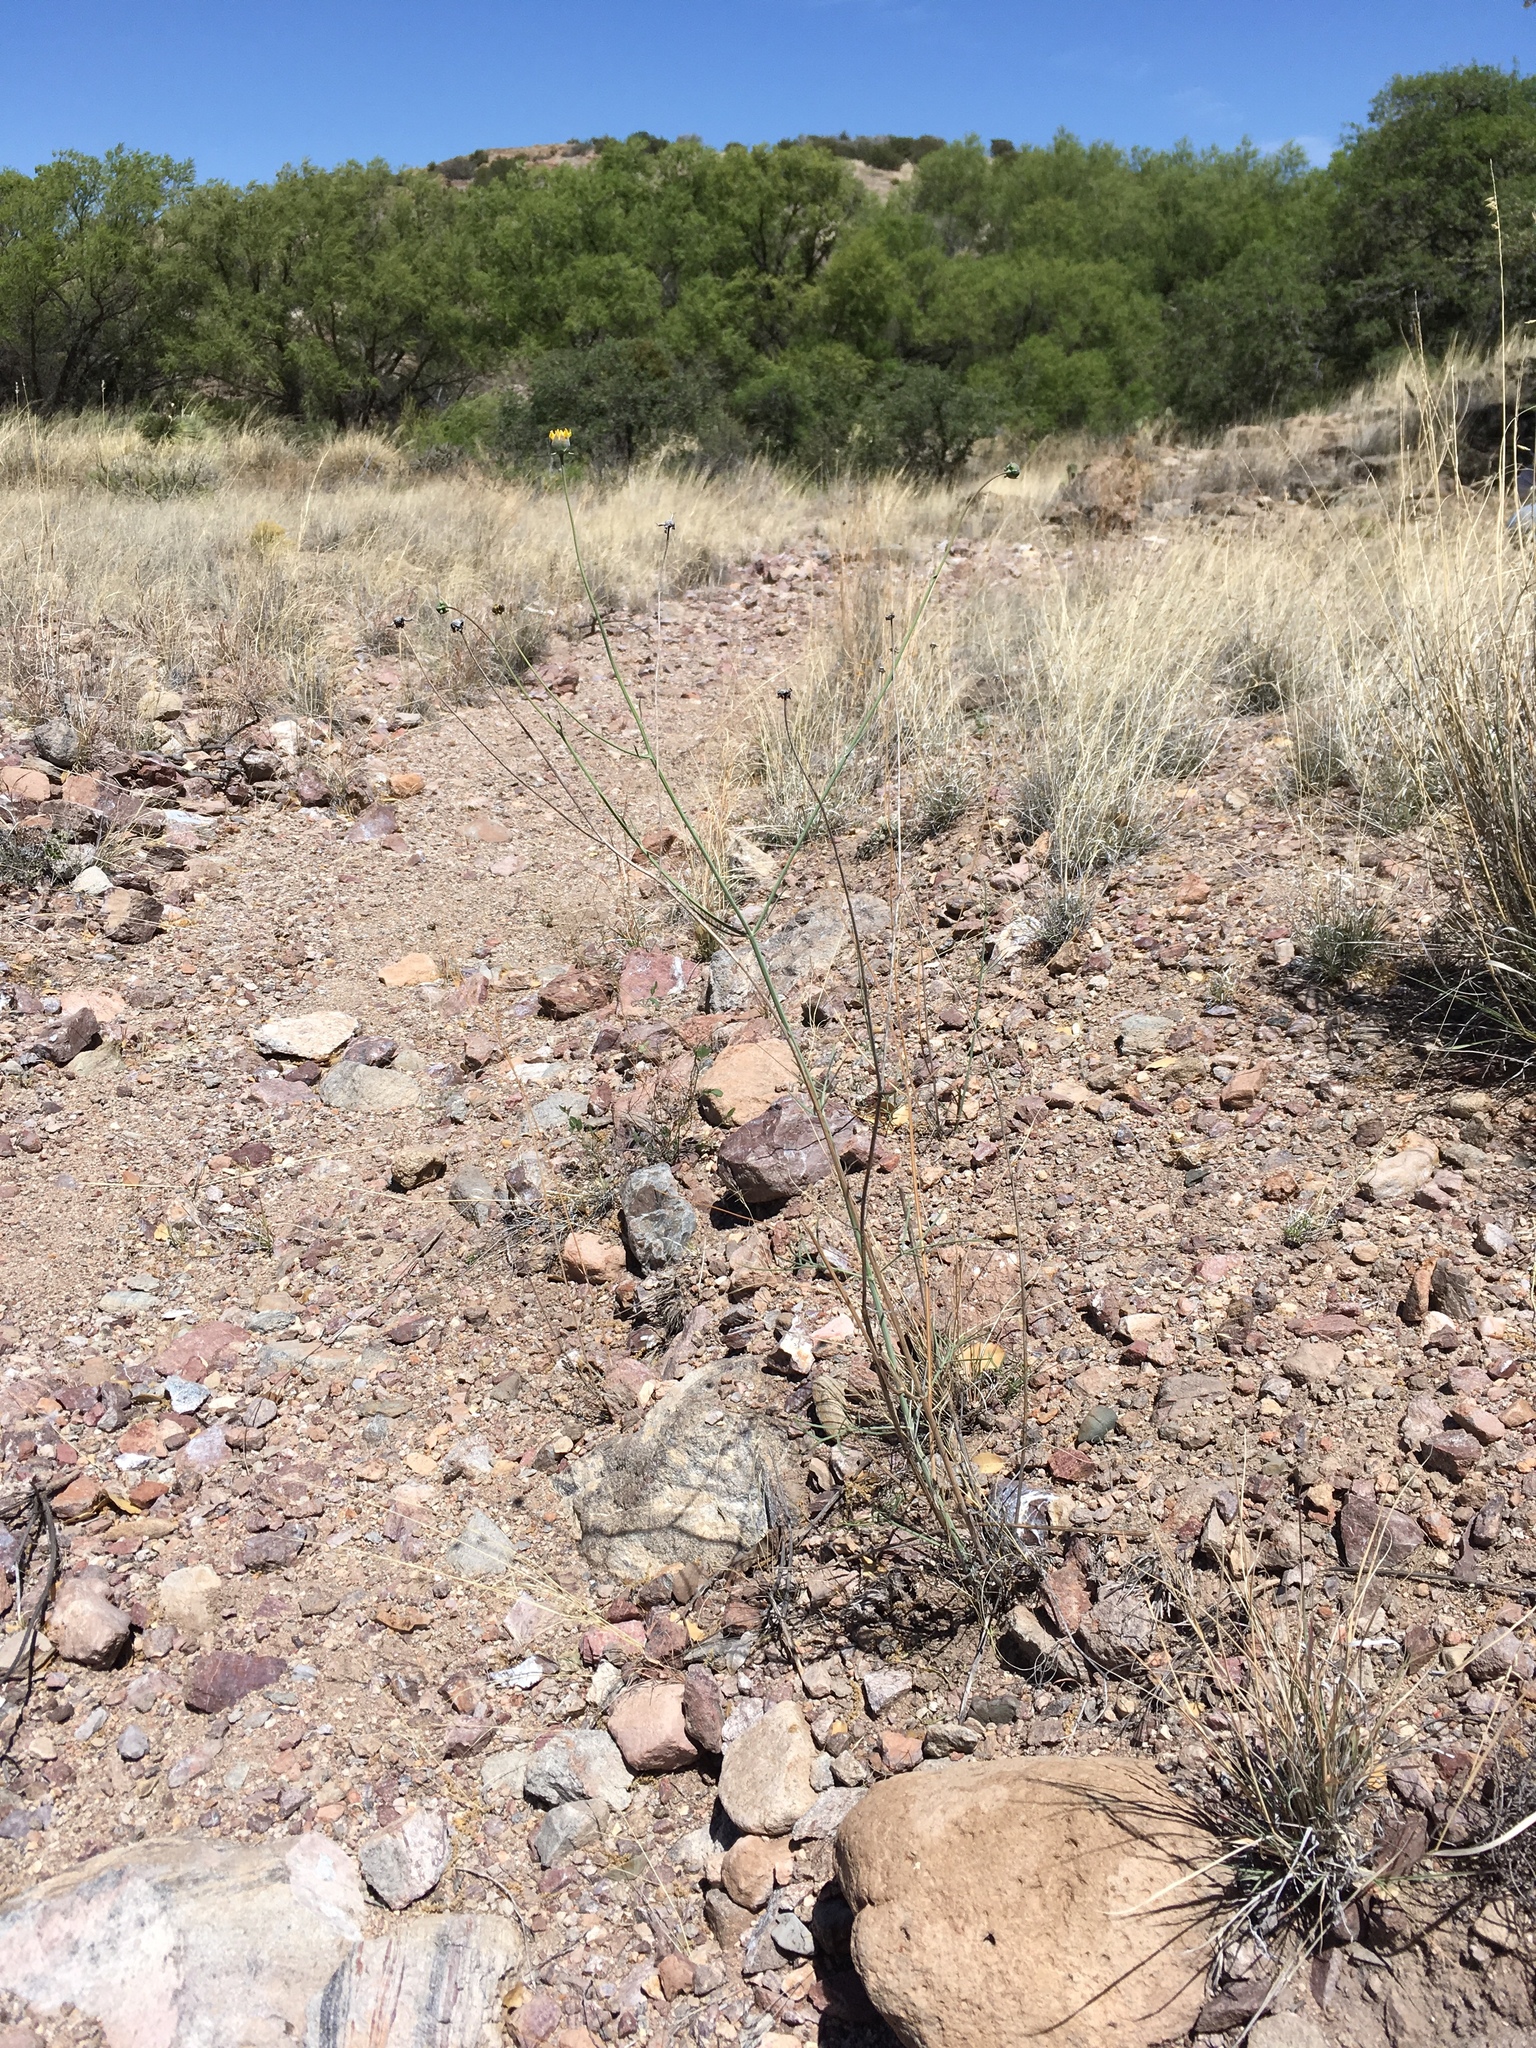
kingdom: Plantae
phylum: Tracheophyta
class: Magnoliopsida
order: Asterales
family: Asteraceae
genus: Thelesperma
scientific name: Thelesperma megapotamicum
